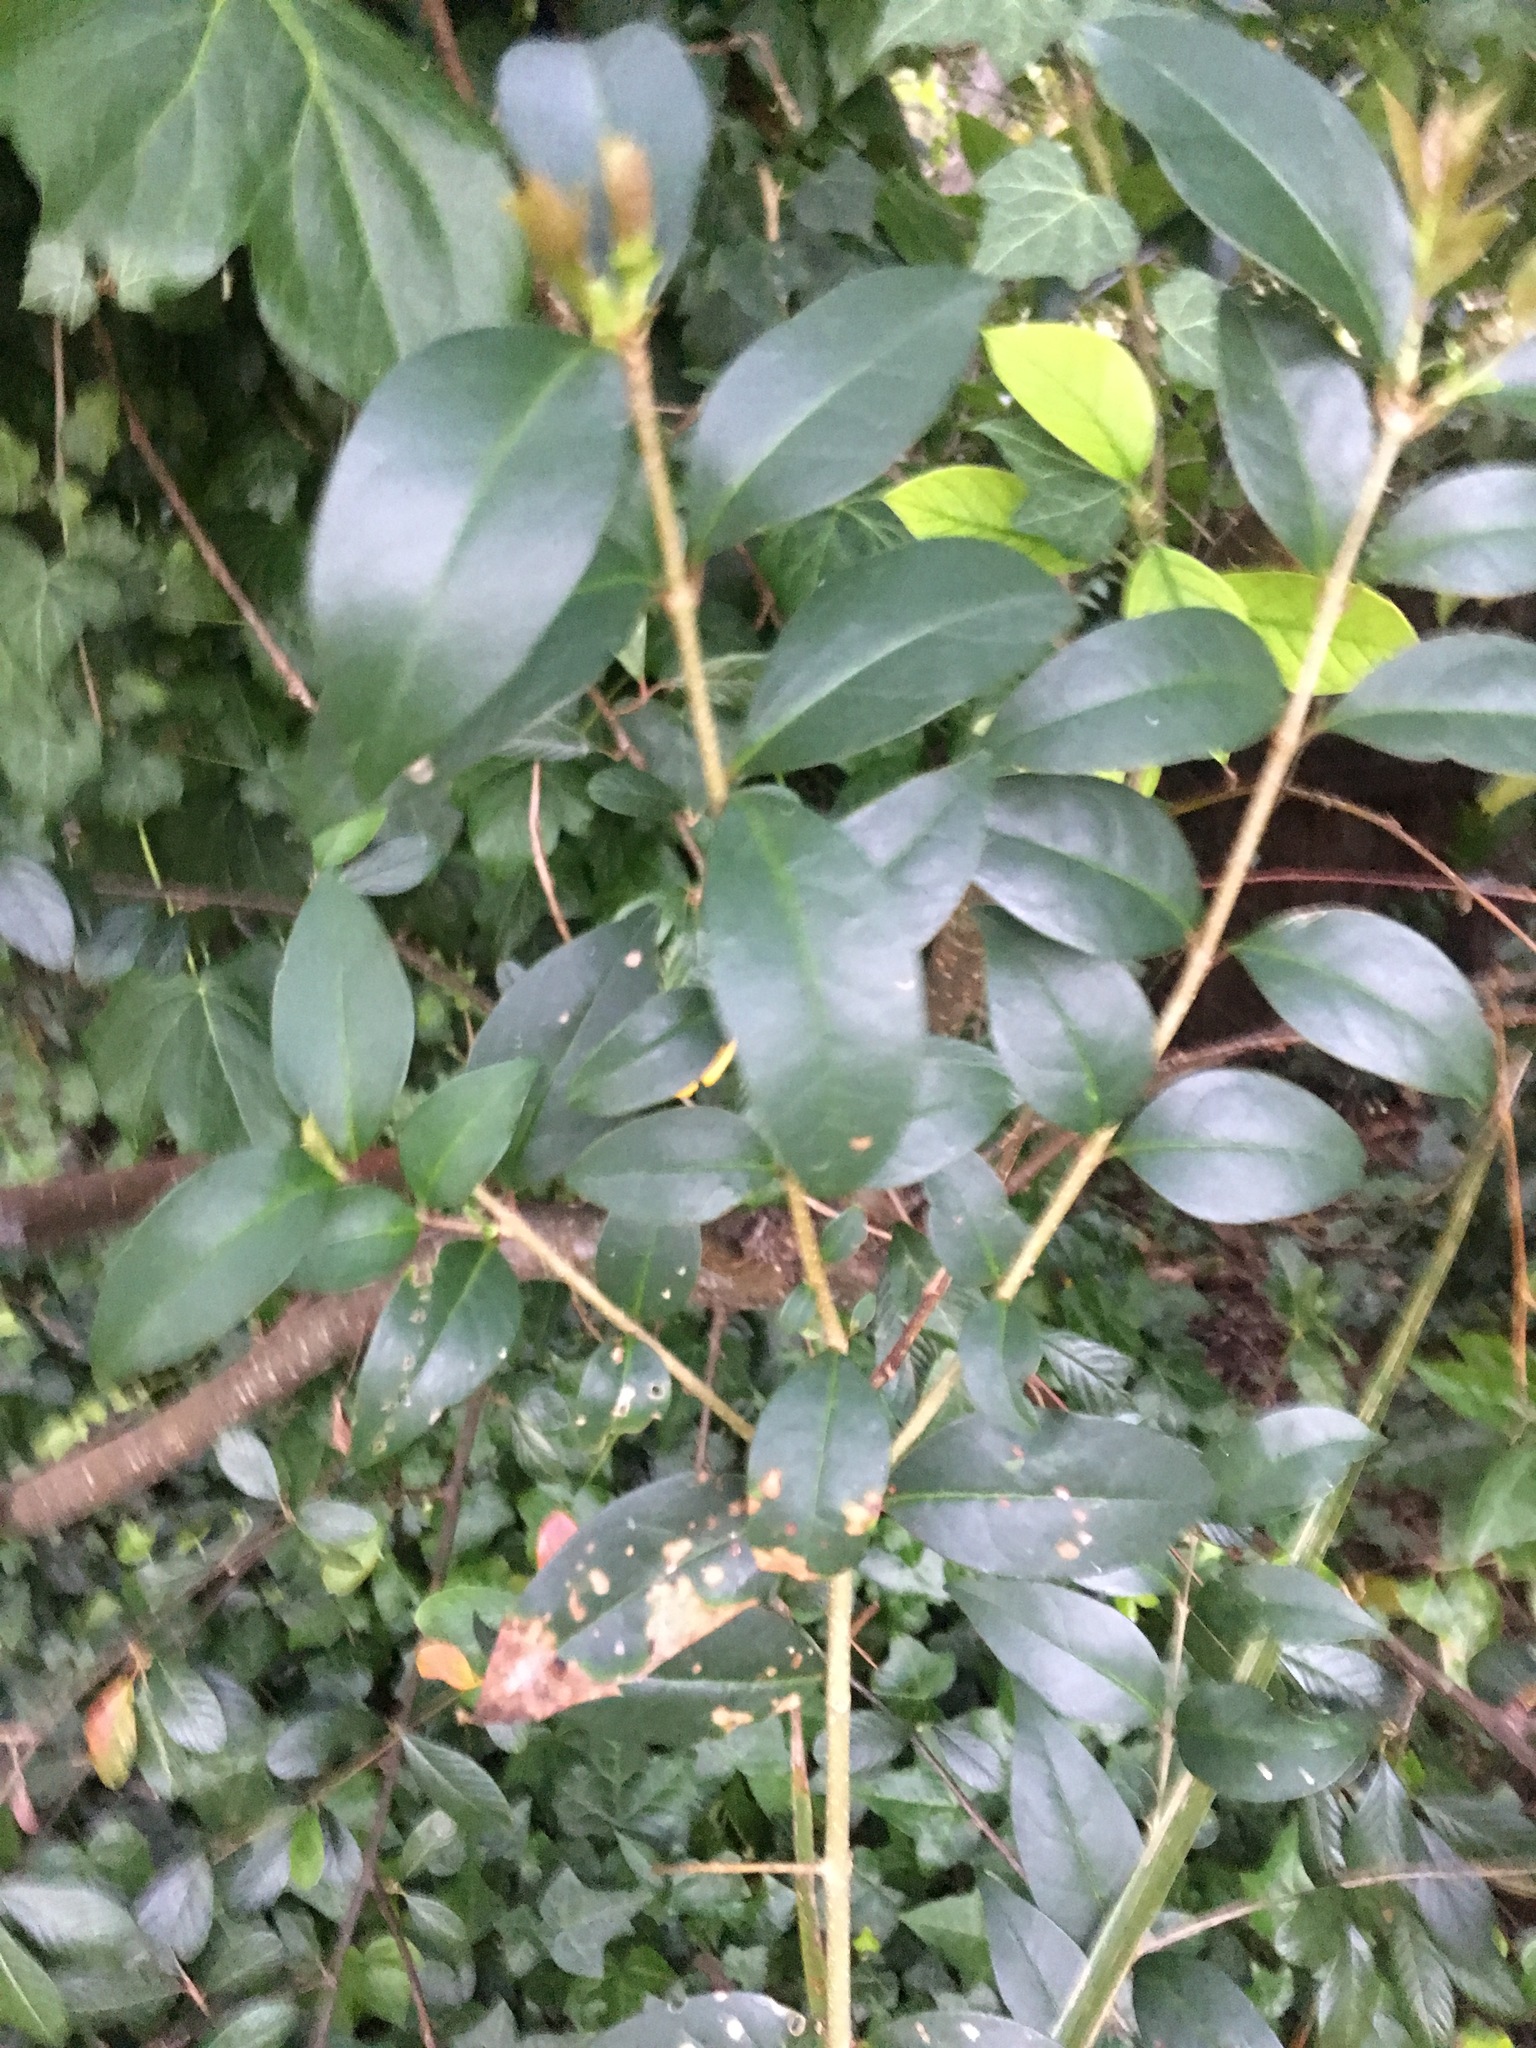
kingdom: Plantae
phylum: Tracheophyta
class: Magnoliopsida
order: Lamiales
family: Oleaceae
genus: Ligustrum
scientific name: Ligustrum lucidum
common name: Glossy privet
